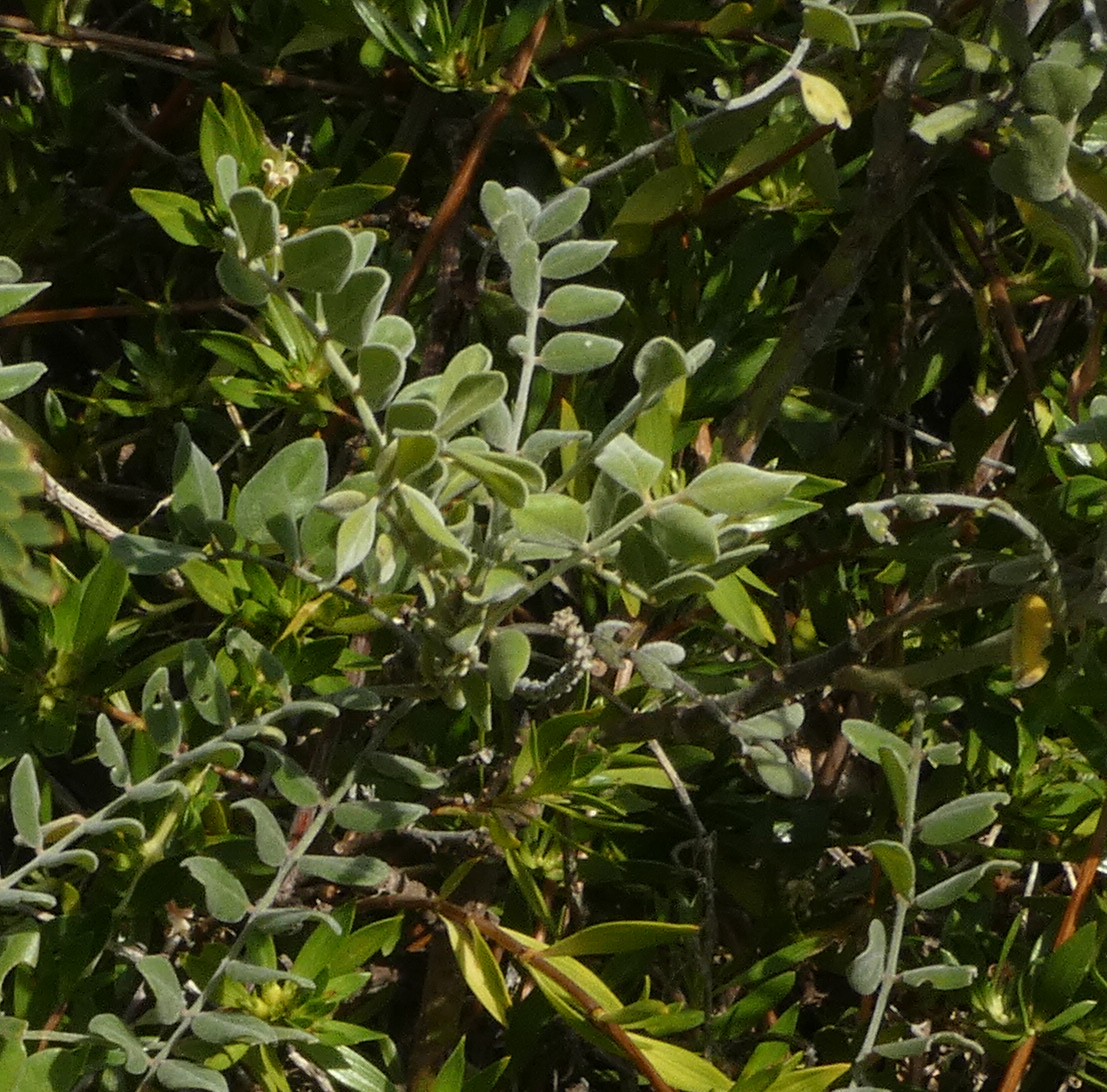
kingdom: Plantae
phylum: Tracheophyta
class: Magnoliopsida
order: Fabales
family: Fabaceae
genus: Sophora
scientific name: Sophora tomentosa
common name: Yellow necklacepod
